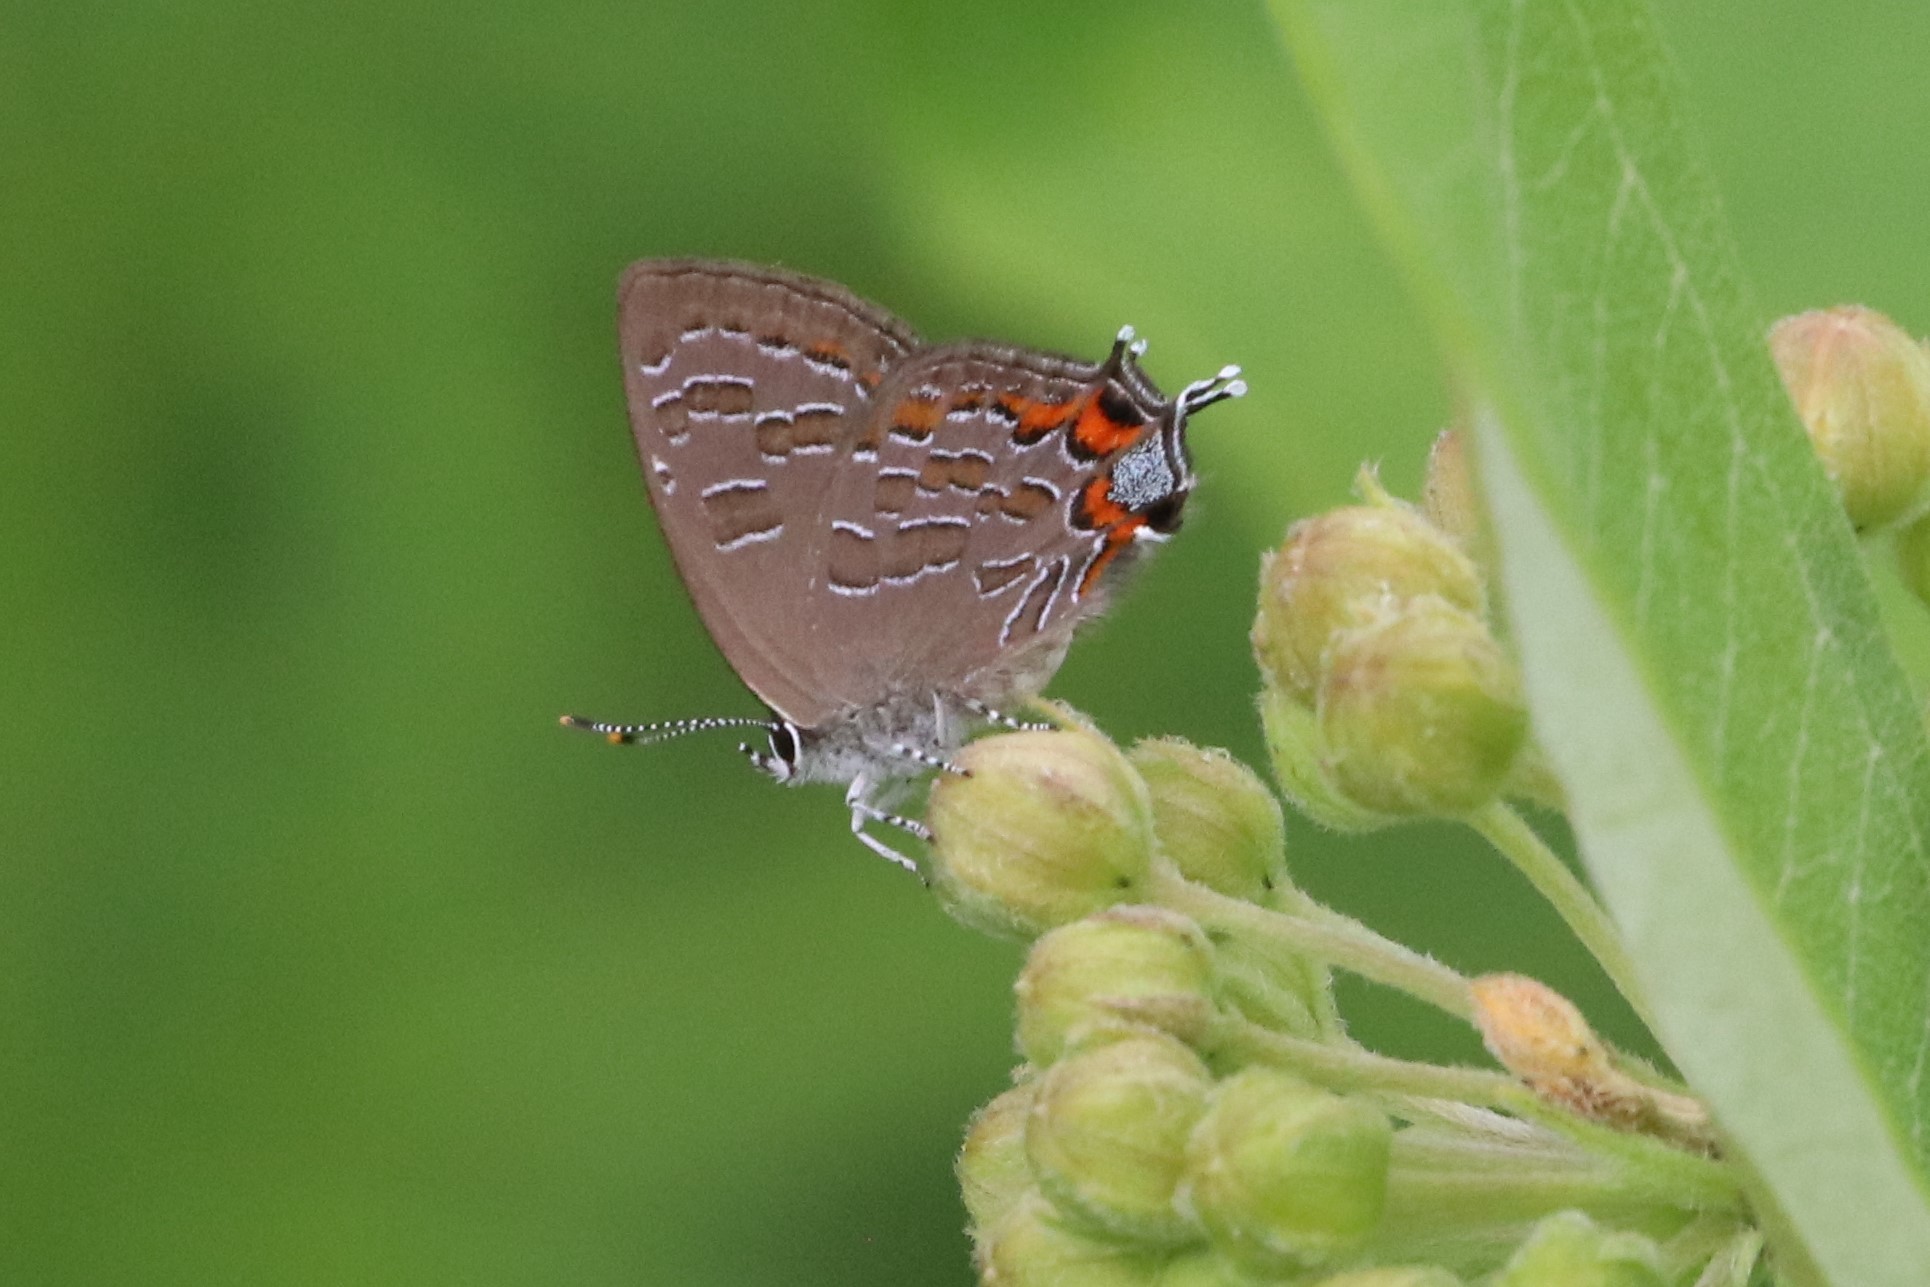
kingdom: Animalia
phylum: Arthropoda
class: Insecta
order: Lepidoptera
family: Lycaenidae
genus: Satyrium
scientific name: Satyrium liparops
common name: Striped hairstreak
